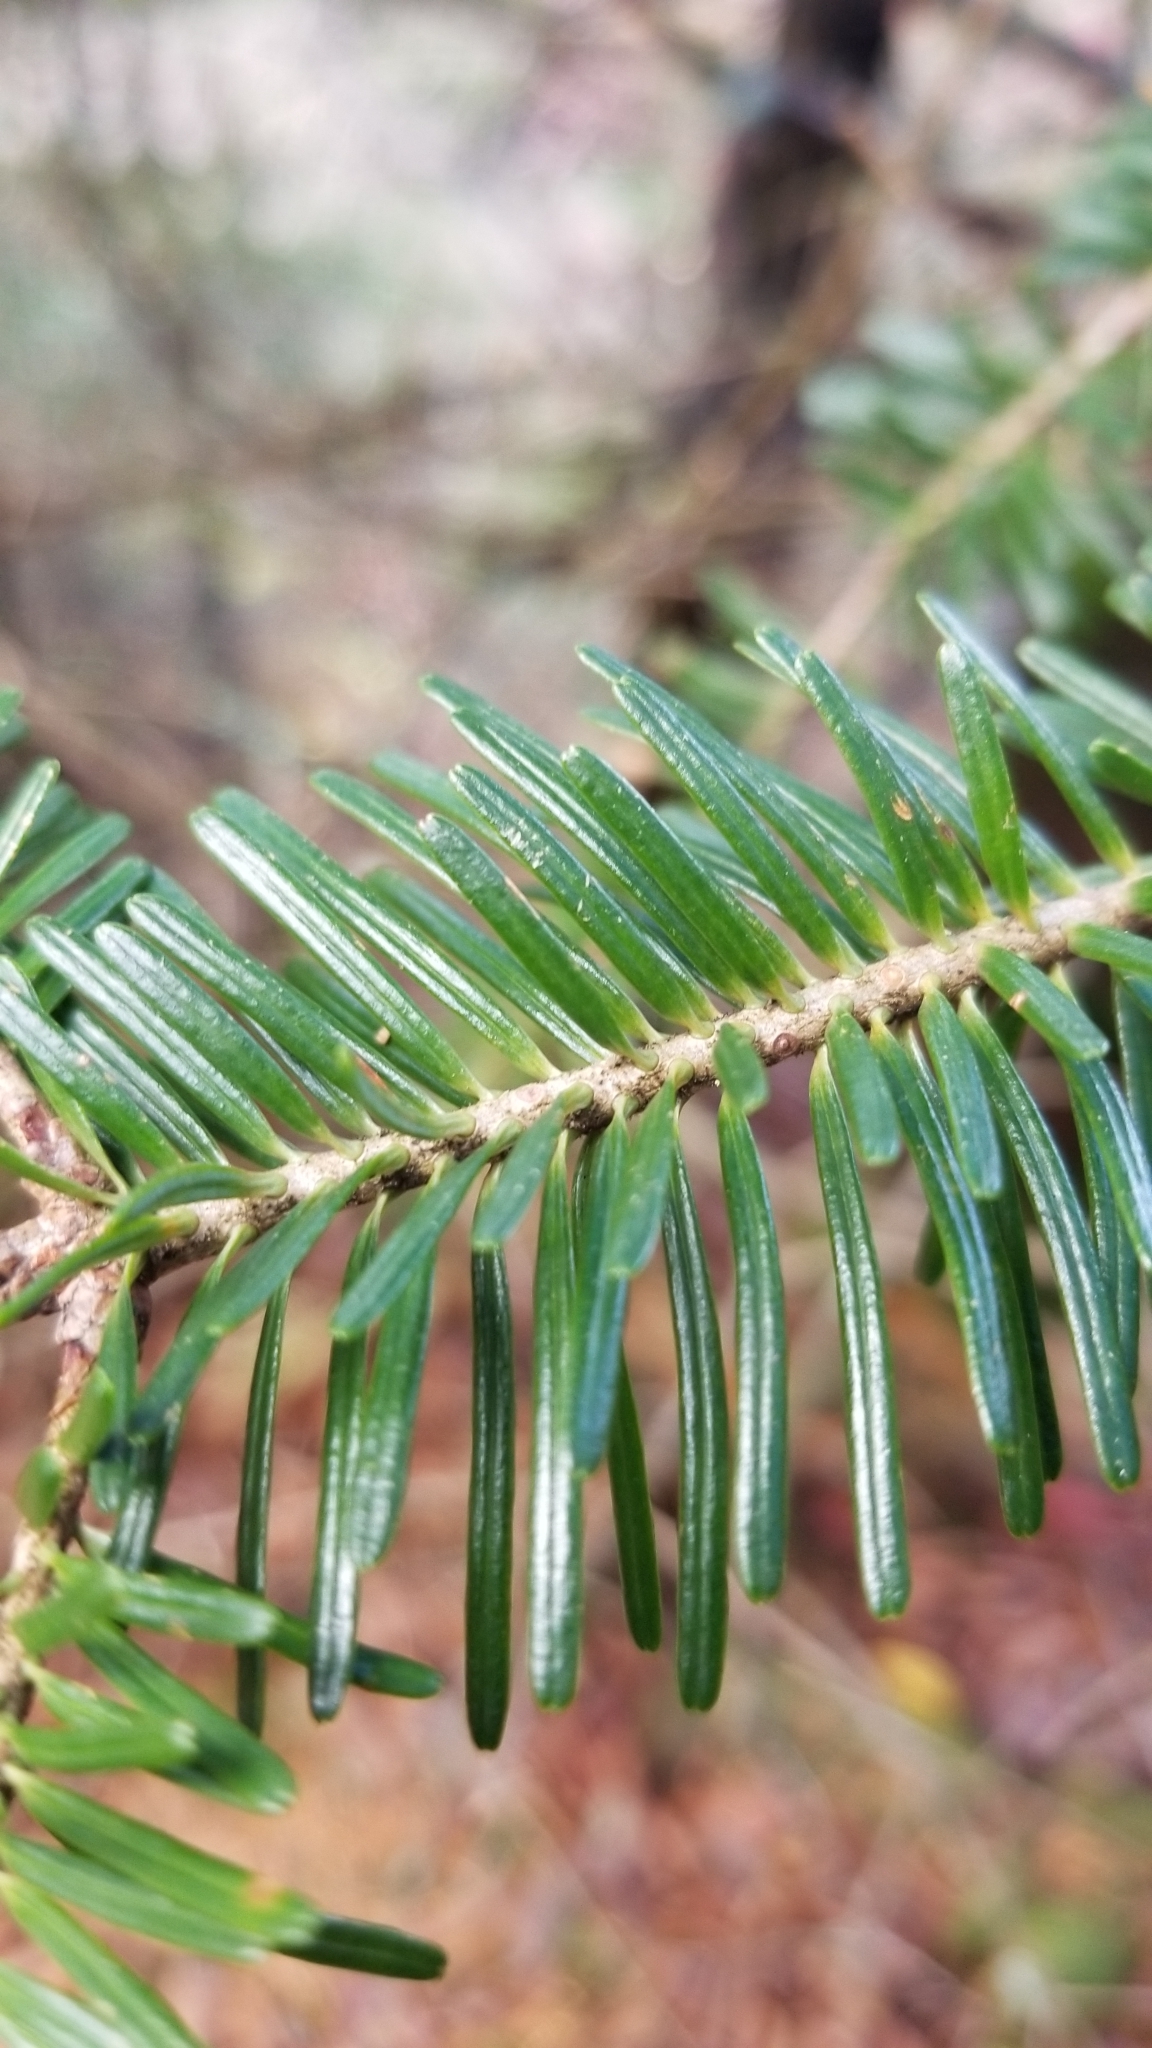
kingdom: Plantae
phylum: Tracheophyta
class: Pinopsida
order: Pinales
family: Pinaceae
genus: Abies
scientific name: Abies fraseri
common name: Fraser fir
